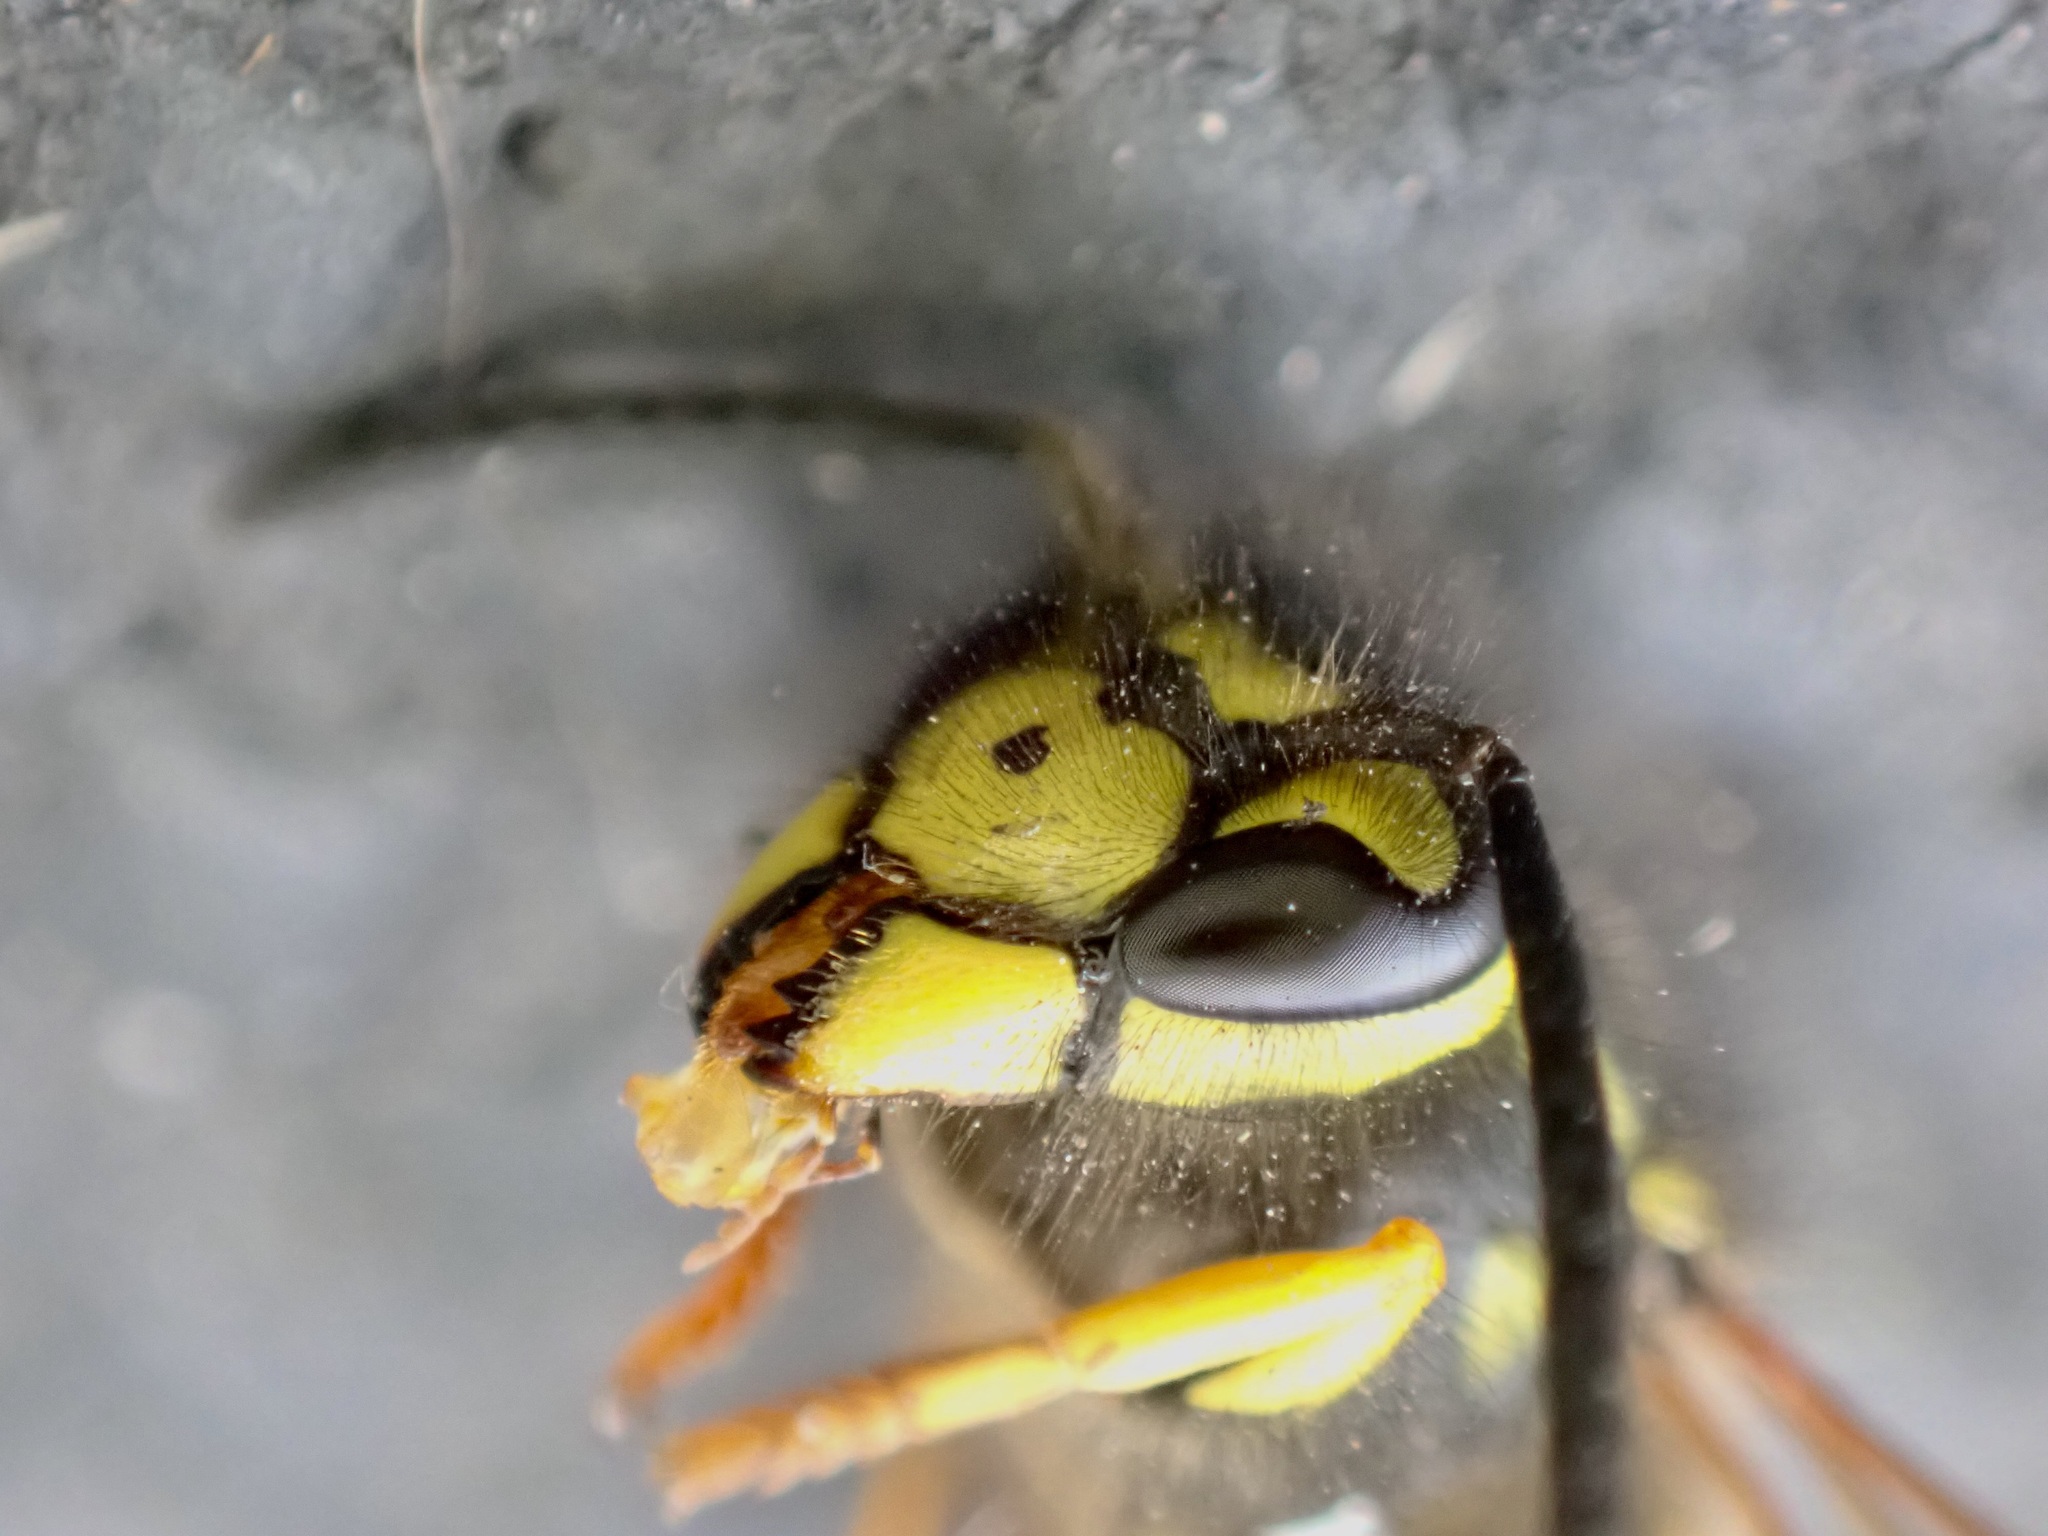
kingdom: Animalia
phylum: Arthropoda
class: Insecta
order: Hymenoptera
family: Vespidae
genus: Vespula
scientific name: Vespula germanica
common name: German wasp
